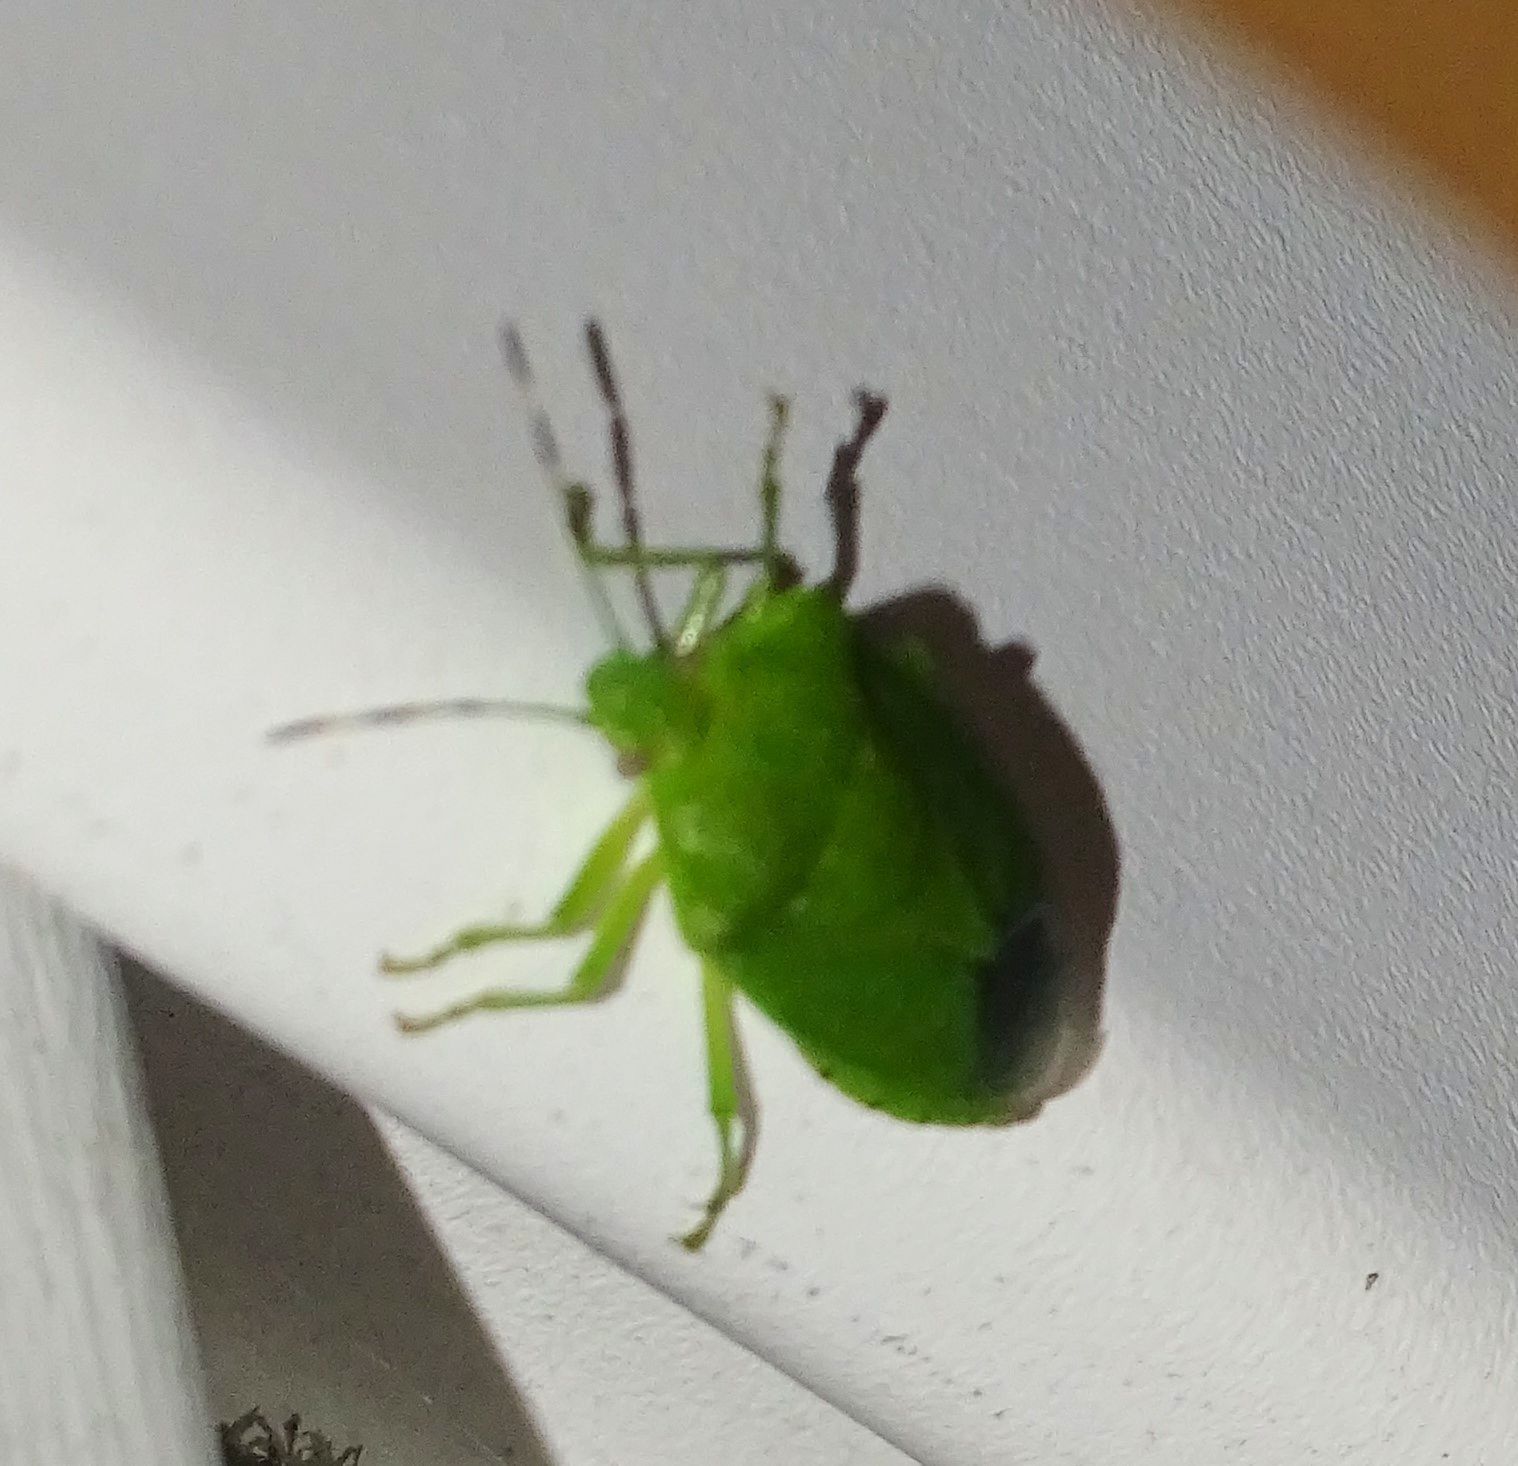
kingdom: Animalia
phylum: Arthropoda
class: Insecta
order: Hemiptera
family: Pentatomidae
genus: Chinavia
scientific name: Chinavia hilaris
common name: Green stink bug
